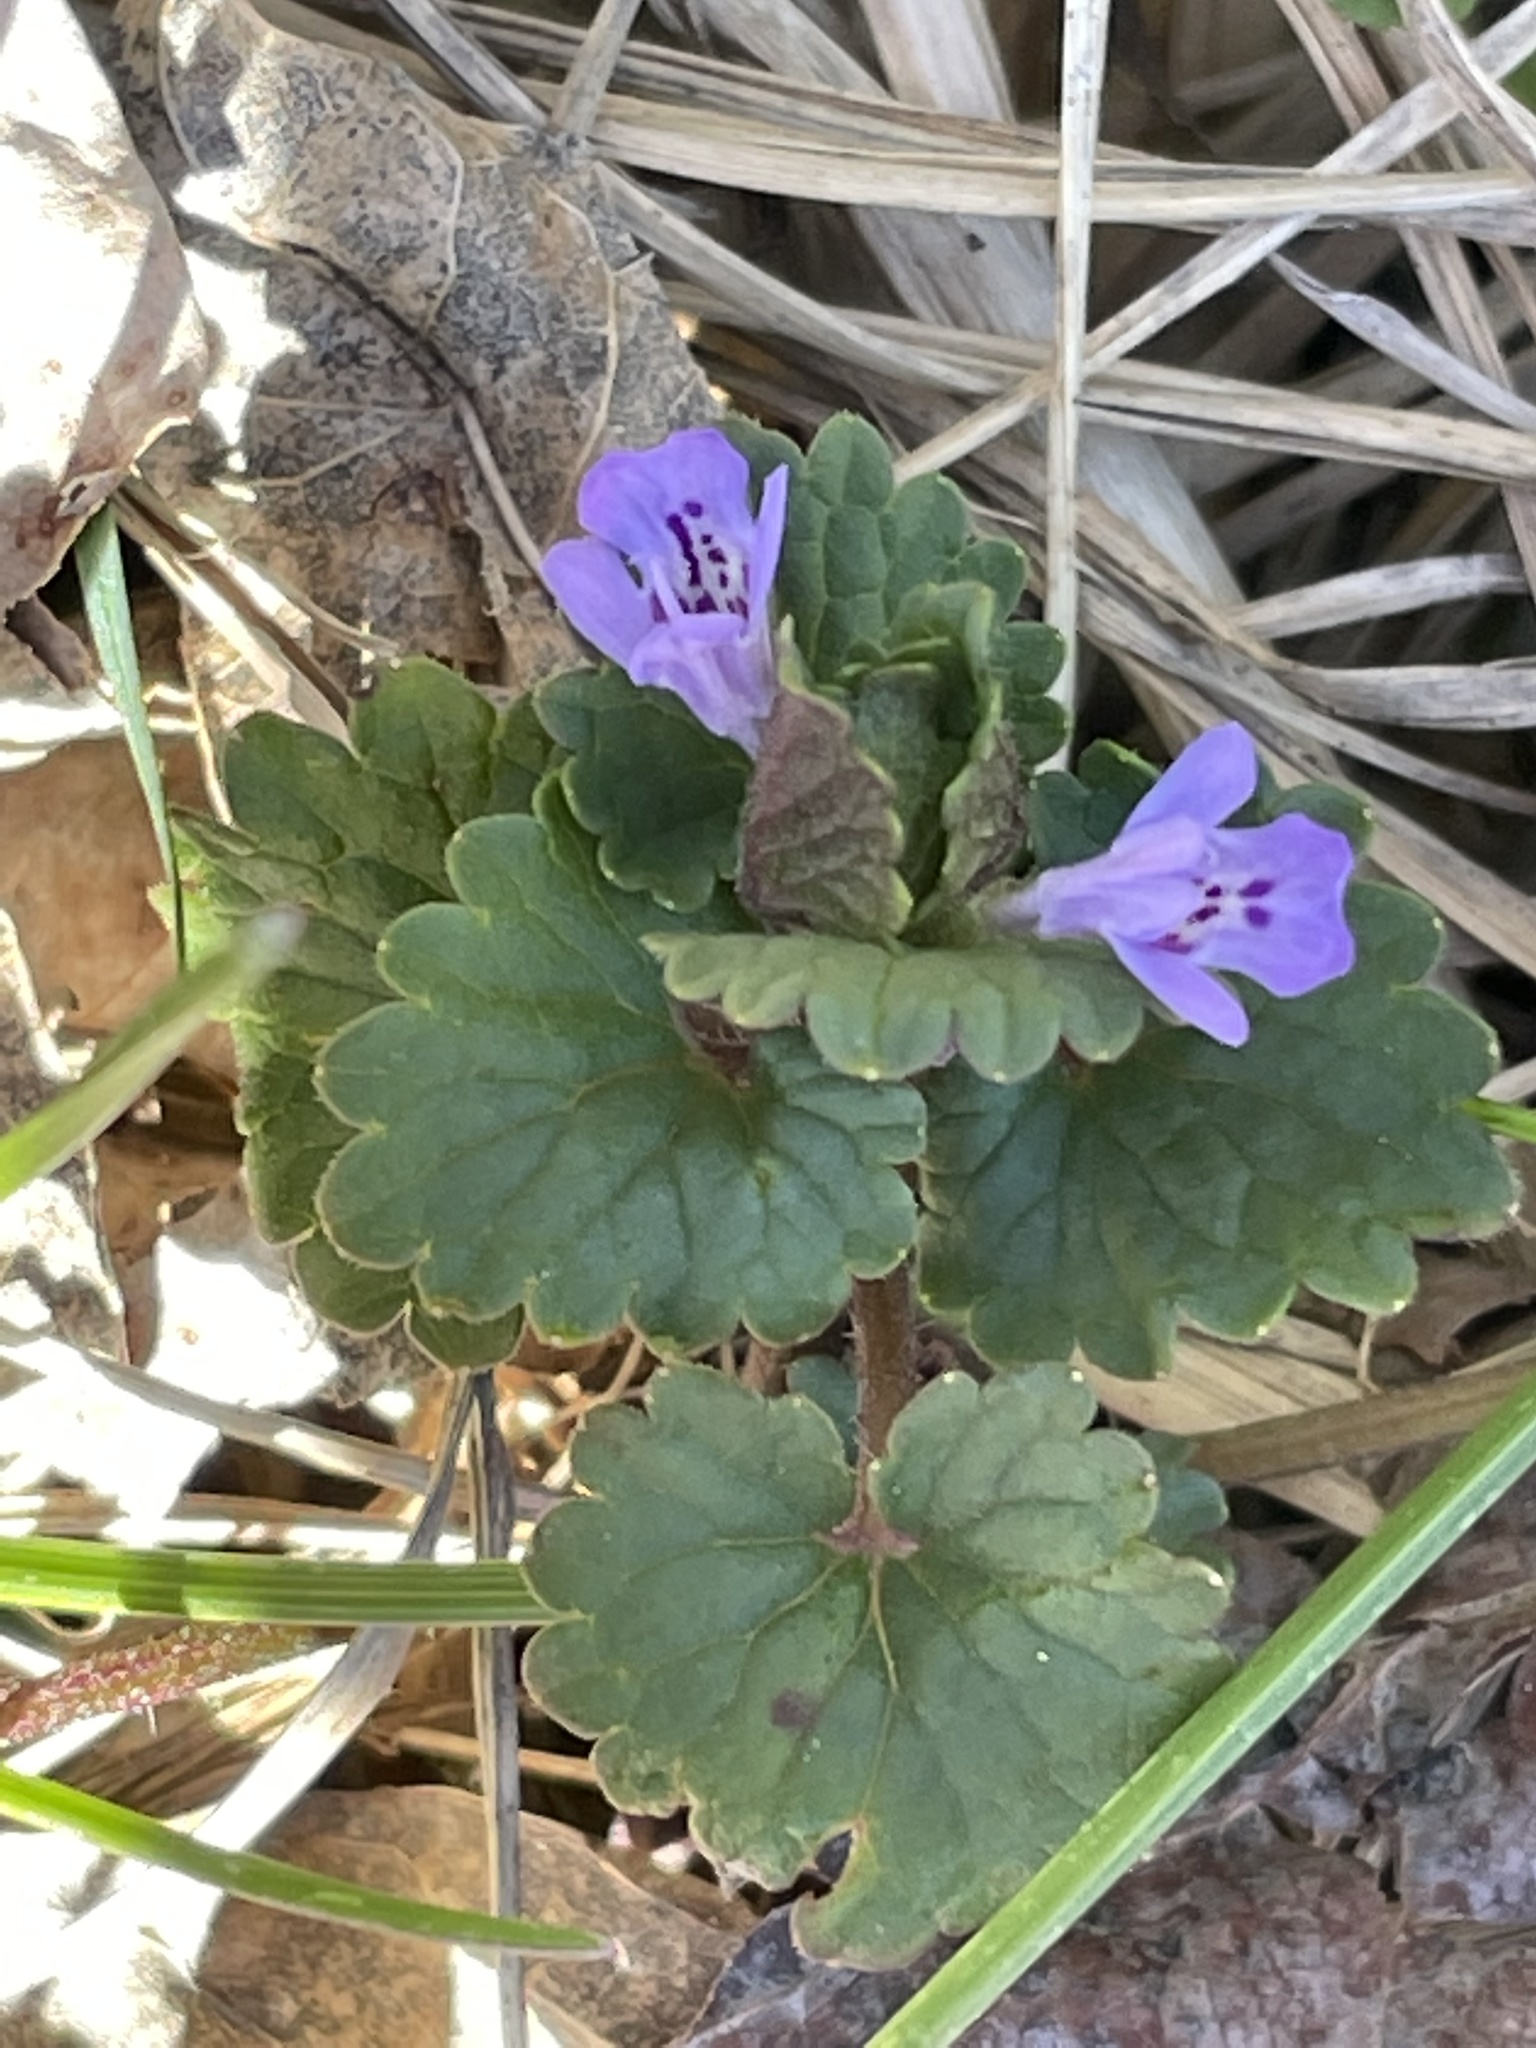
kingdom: Plantae
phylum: Tracheophyta
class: Magnoliopsida
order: Lamiales
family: Lamiaceae
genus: Glechoma
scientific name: Glechoma hederacea
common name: Ground ivy
